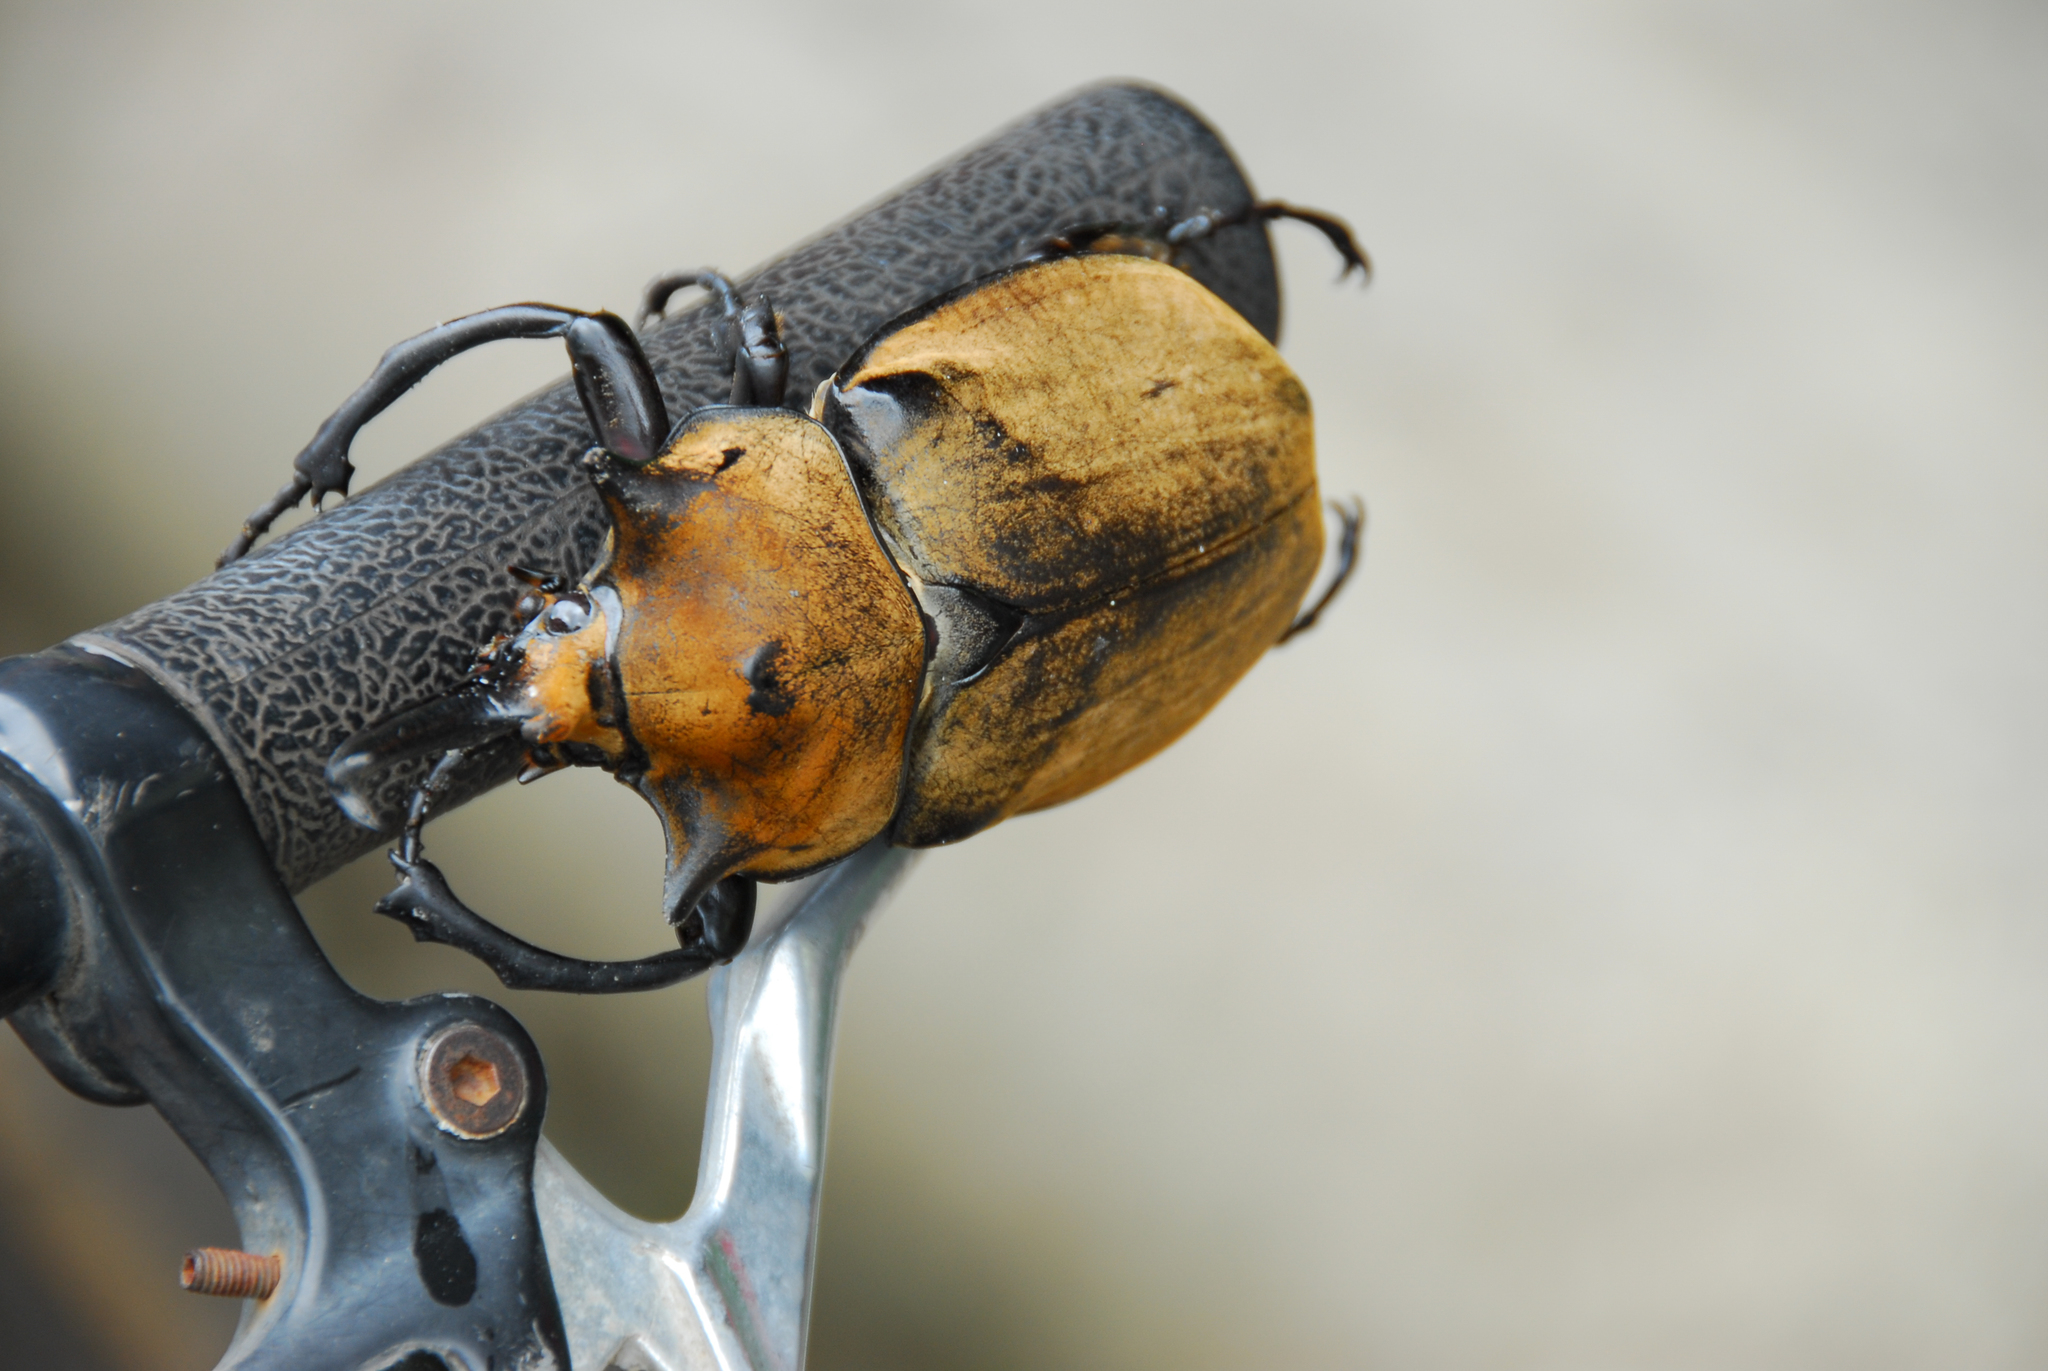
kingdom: Animalia
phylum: Arthropoda
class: Insecta
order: Coleoptera
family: Scarabaeidae
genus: Megasoma
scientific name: Megasoma elephas
